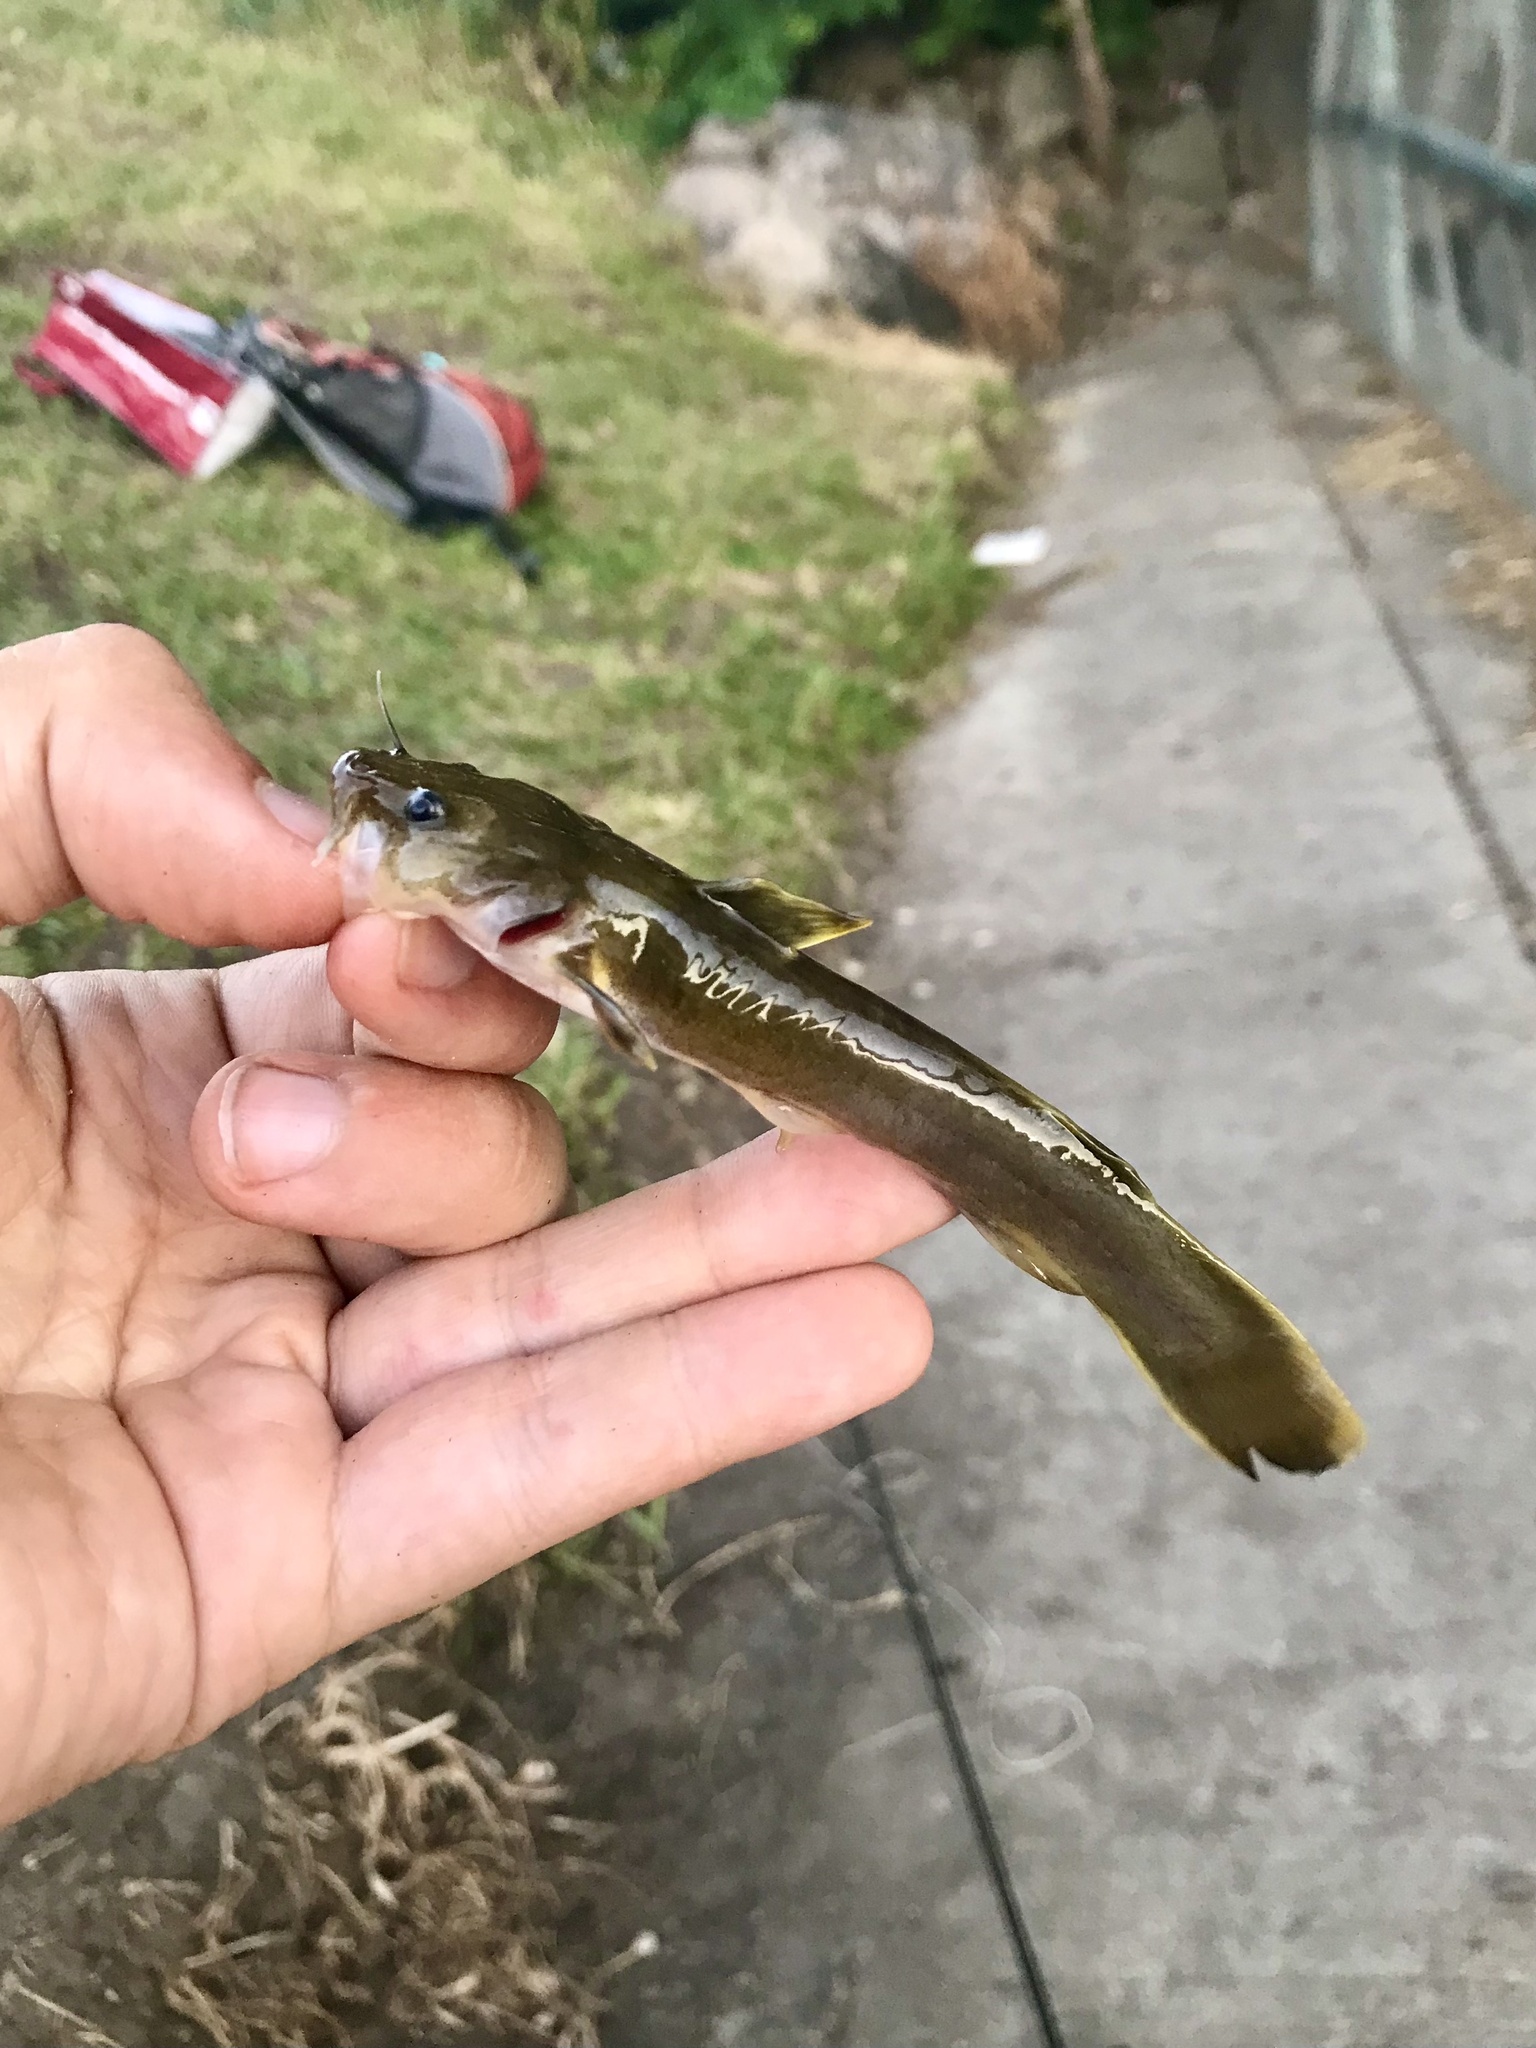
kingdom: Animalia
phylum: Chordata
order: Siluriformes
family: Ictaluridae
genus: Noturus
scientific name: Noturus flavus
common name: Stonecat
